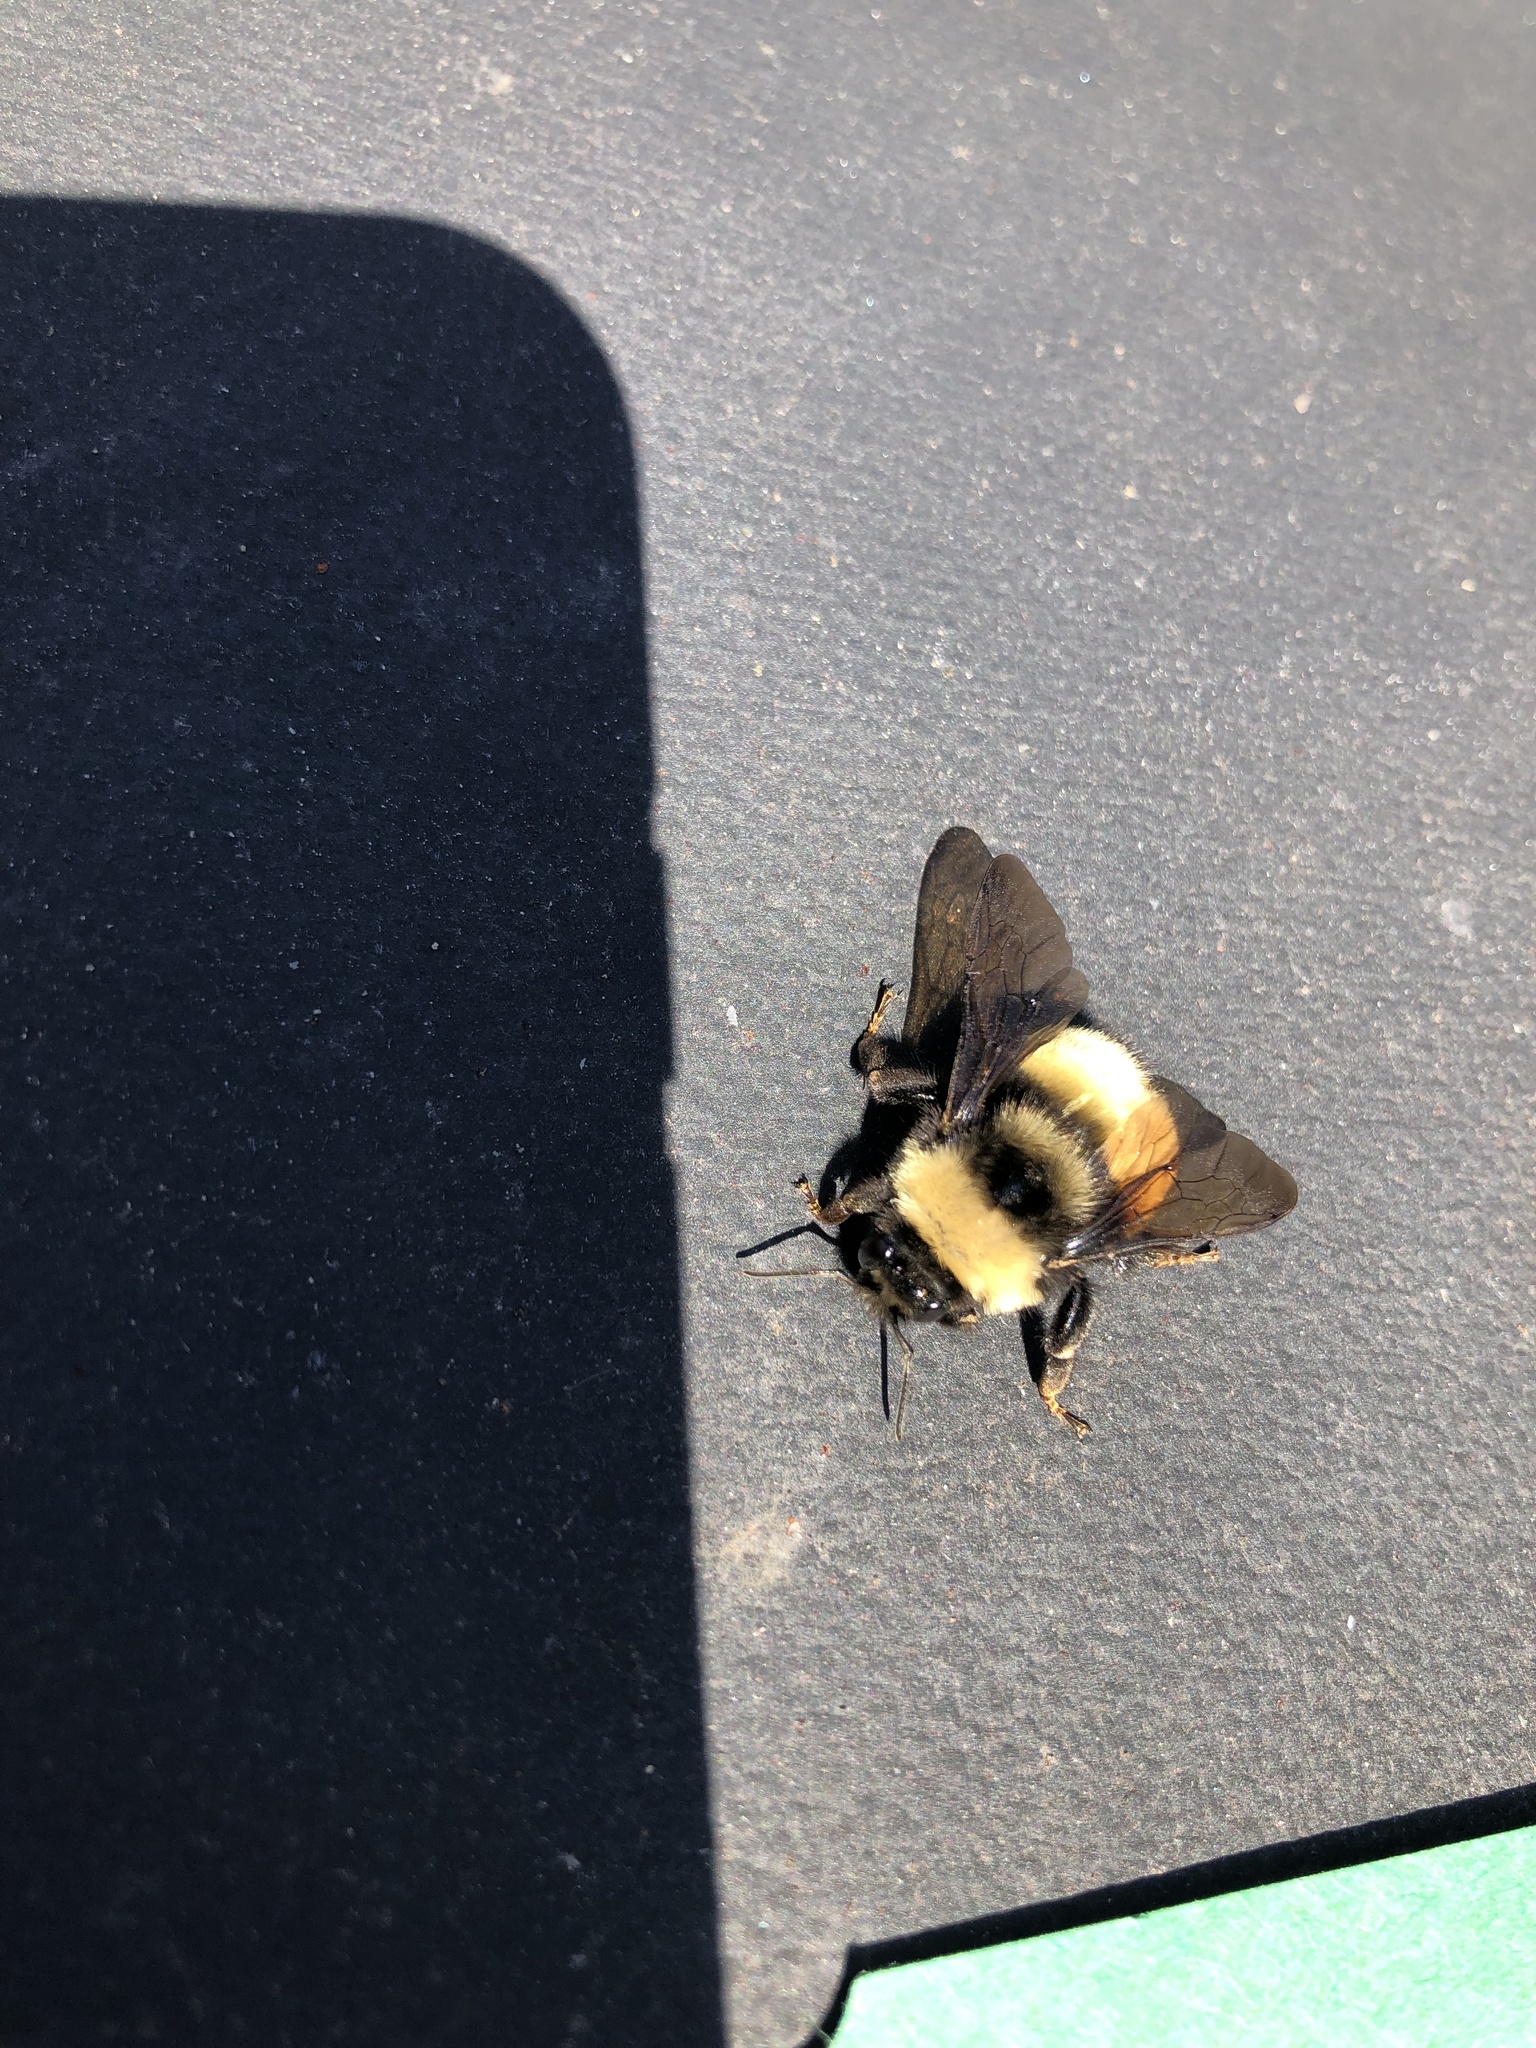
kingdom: Animalia
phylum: Arthropoda
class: Insecta
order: Hymenoptera
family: Apidae
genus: Bombus
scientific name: Bombus terricola
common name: Yellow-banded bumble bee
